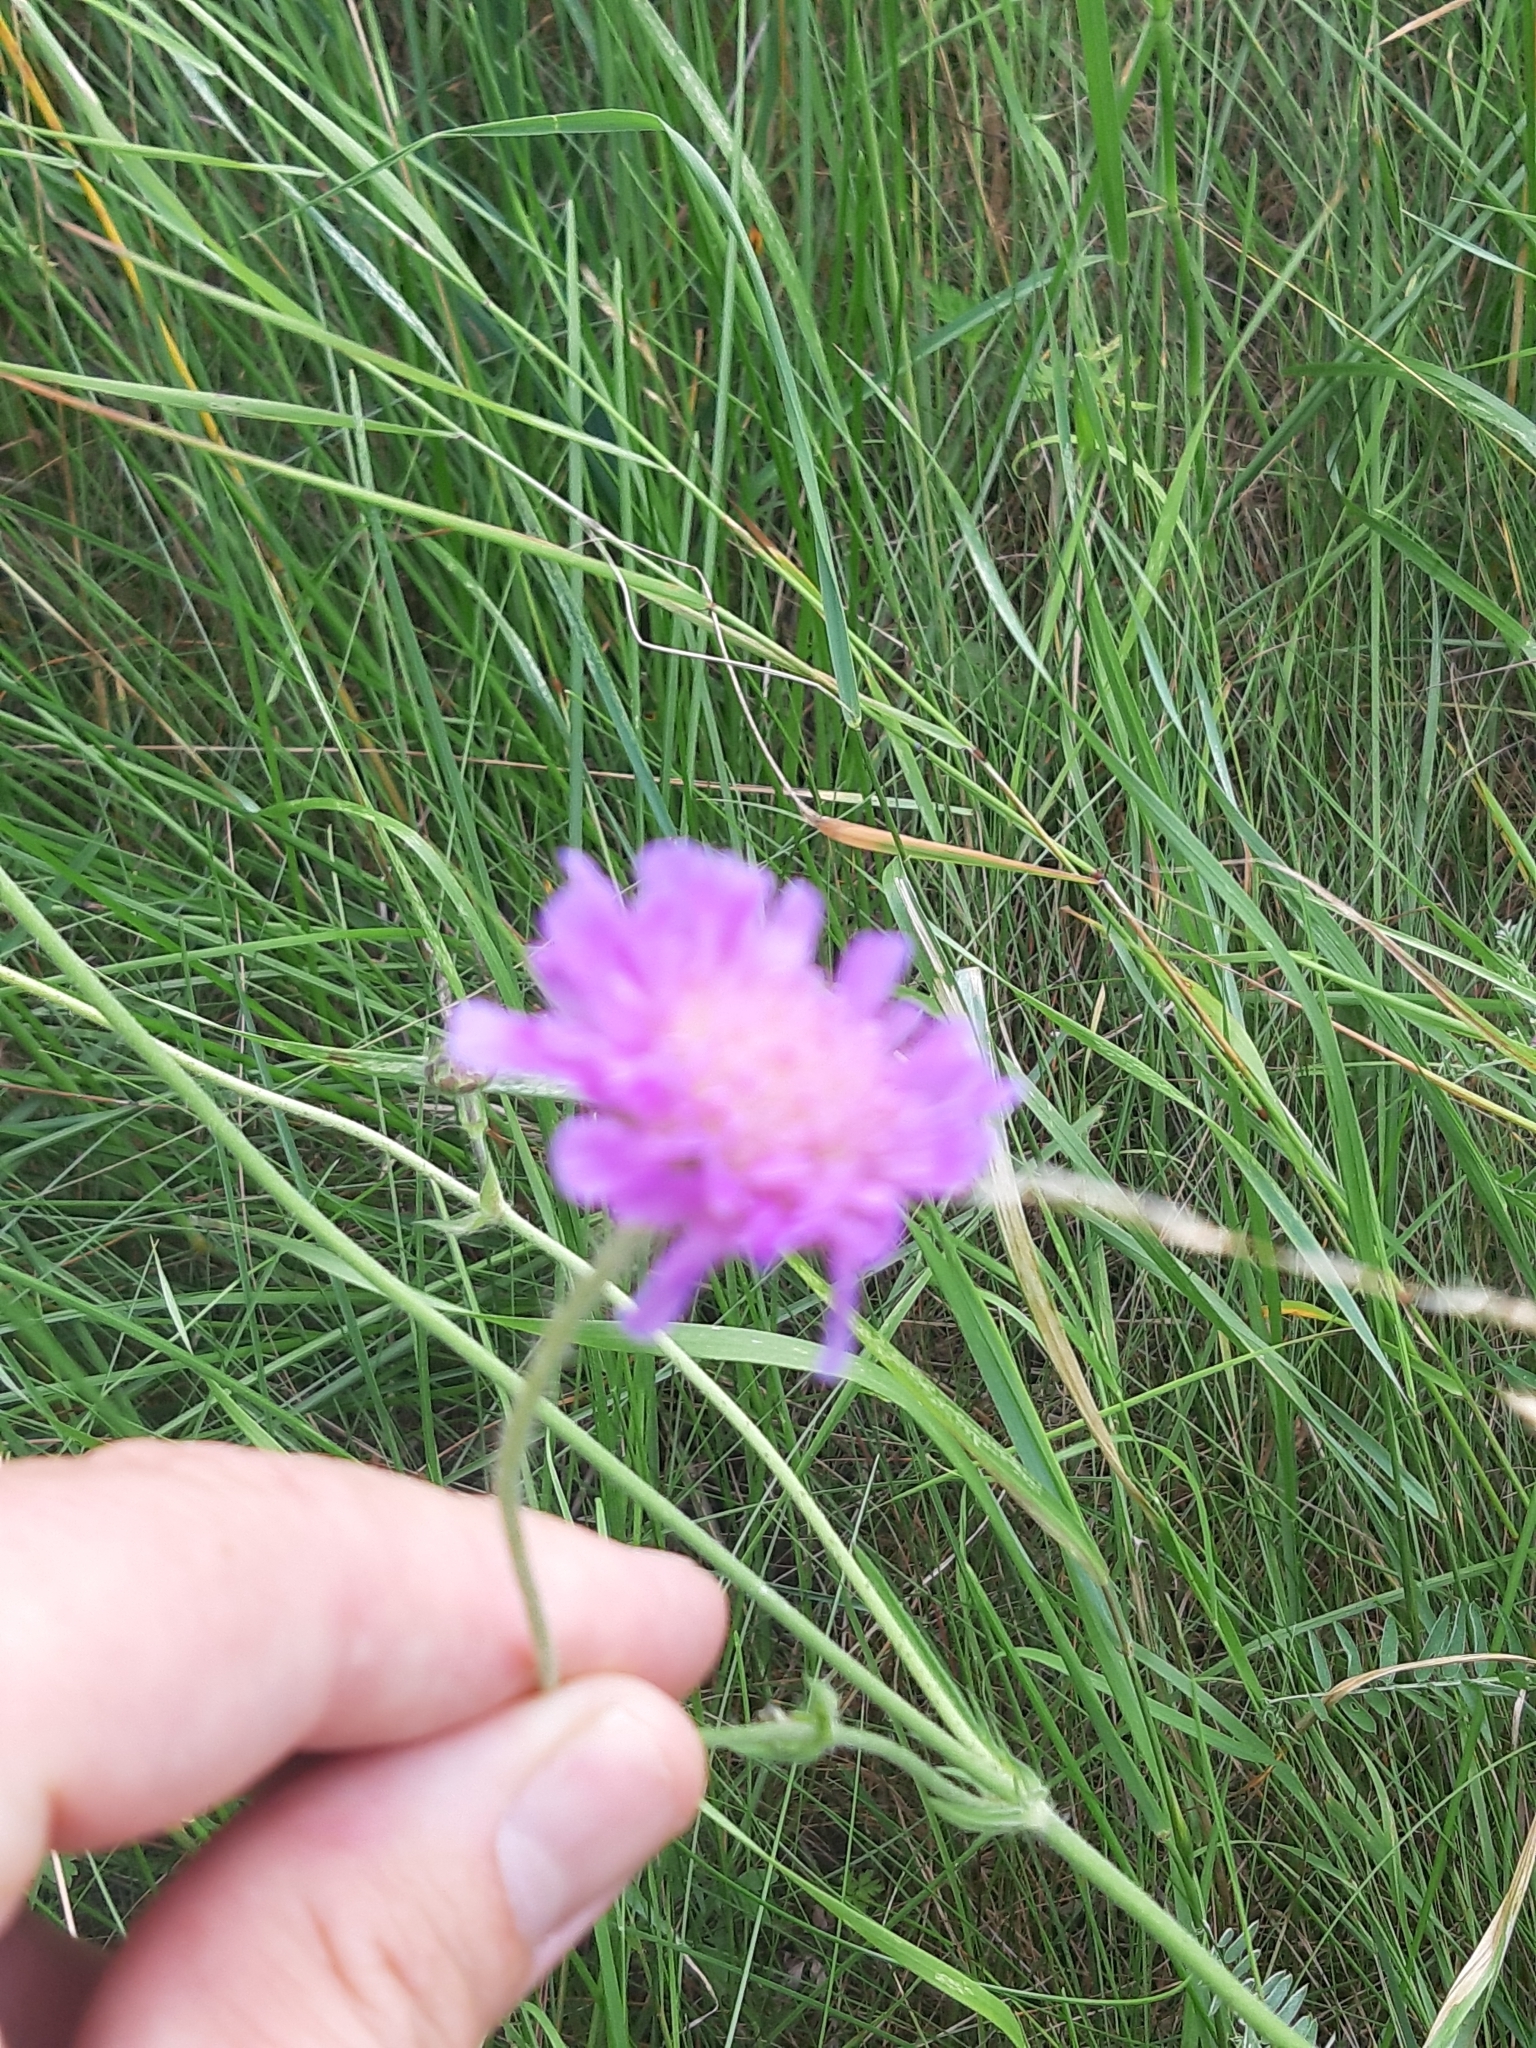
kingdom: Plantae
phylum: Tracheophyta
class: Magnoliopsida
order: Dipsacales
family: Caprifoliaceae
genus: Knautia
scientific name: Knautia arvensis
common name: Field scabiosa
